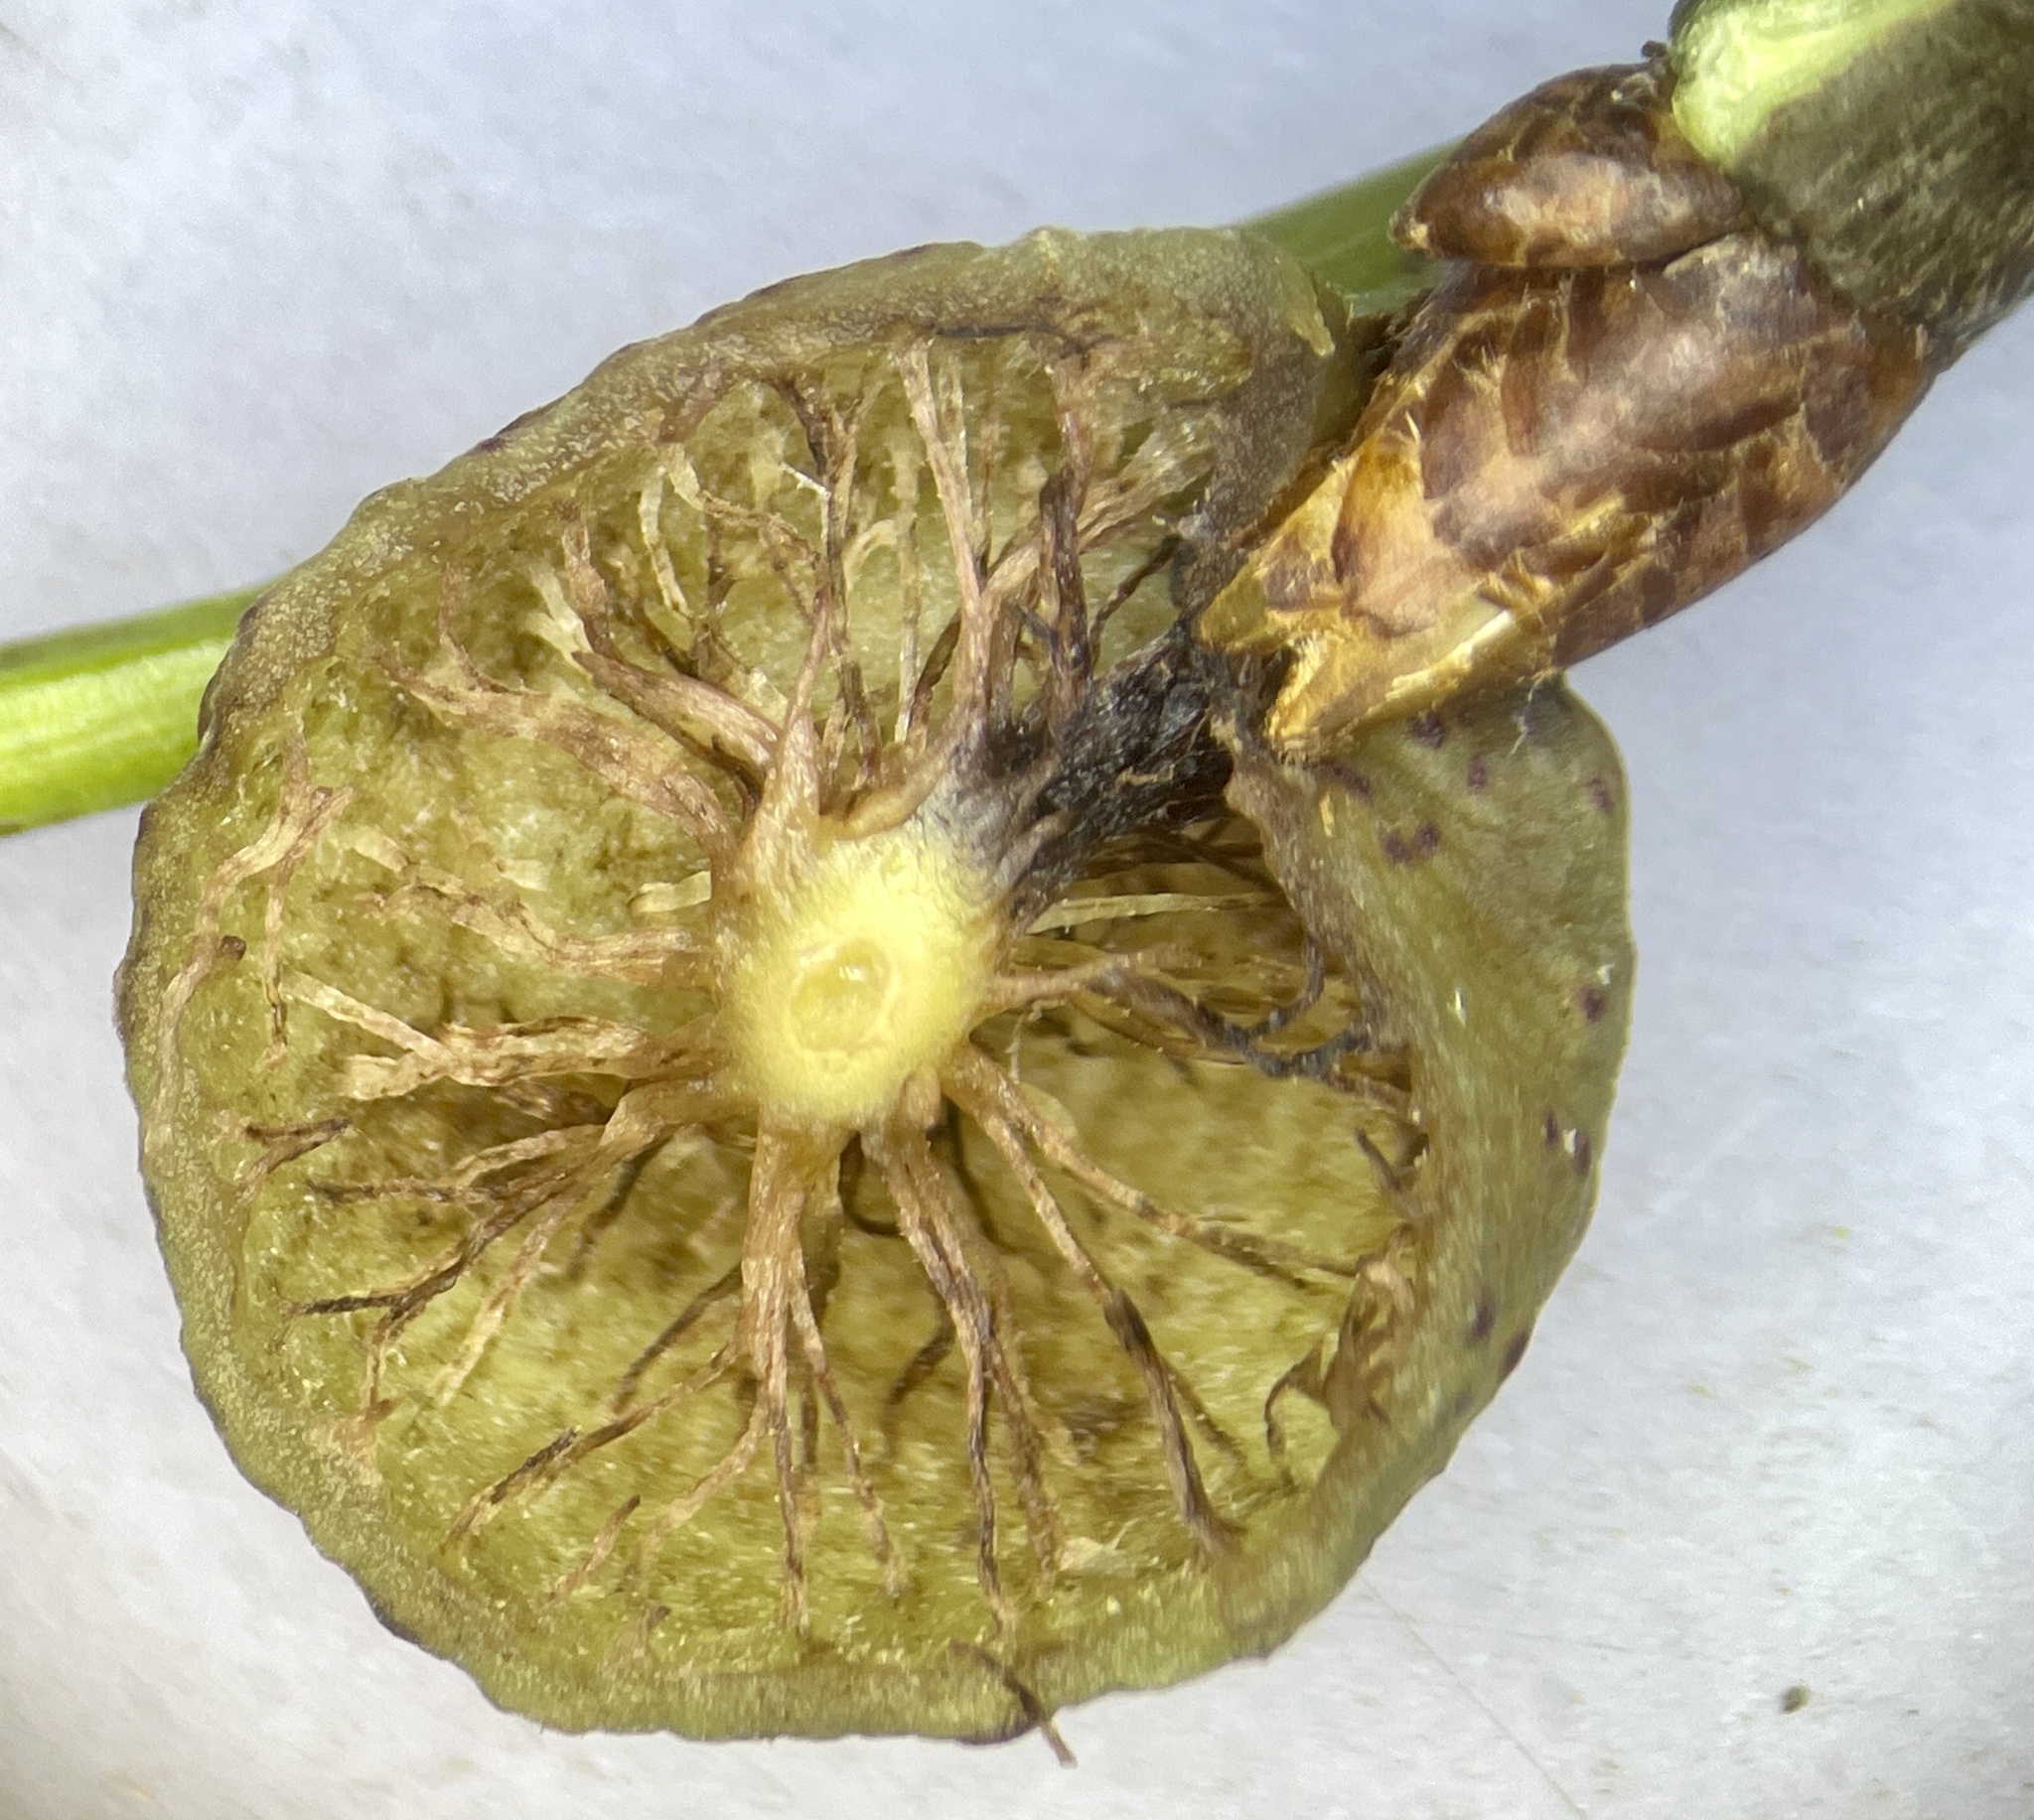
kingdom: Animalia
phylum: Arthropoda
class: Insecta
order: Hymenoptera
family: Cynipidae
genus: Amphibolips
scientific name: Amphibolips
